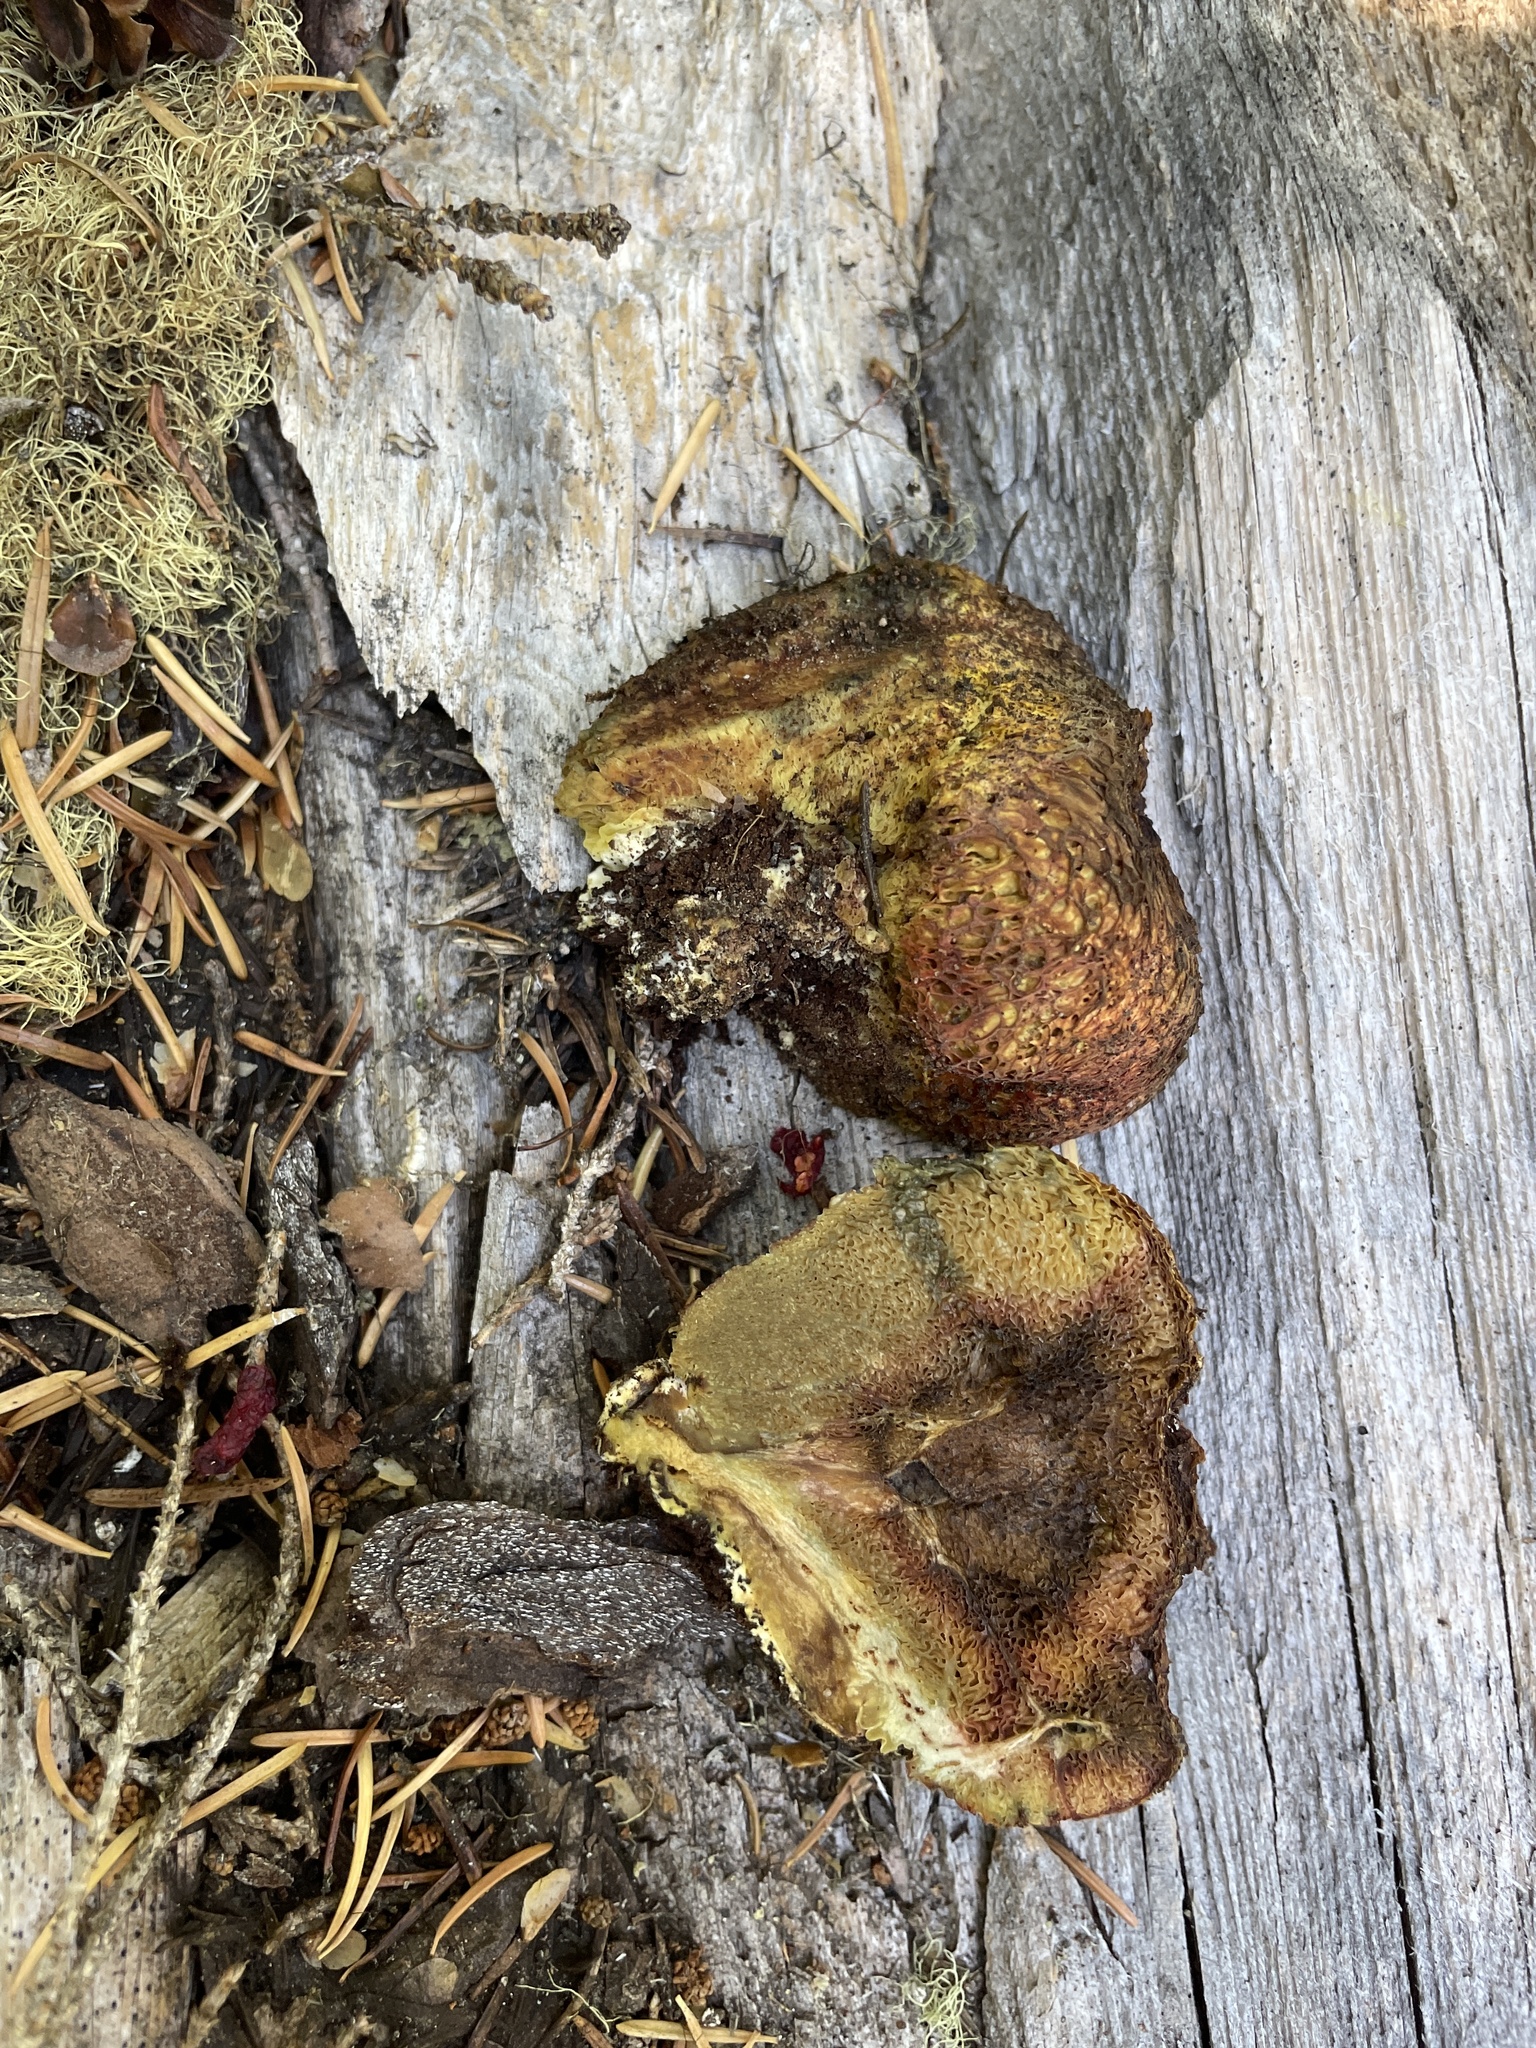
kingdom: Fungi
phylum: Basidiomycota
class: Agaricomycetes
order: Boletales
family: Boletaceae
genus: Gastroboletus
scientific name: Gastroboletus turbinatus
